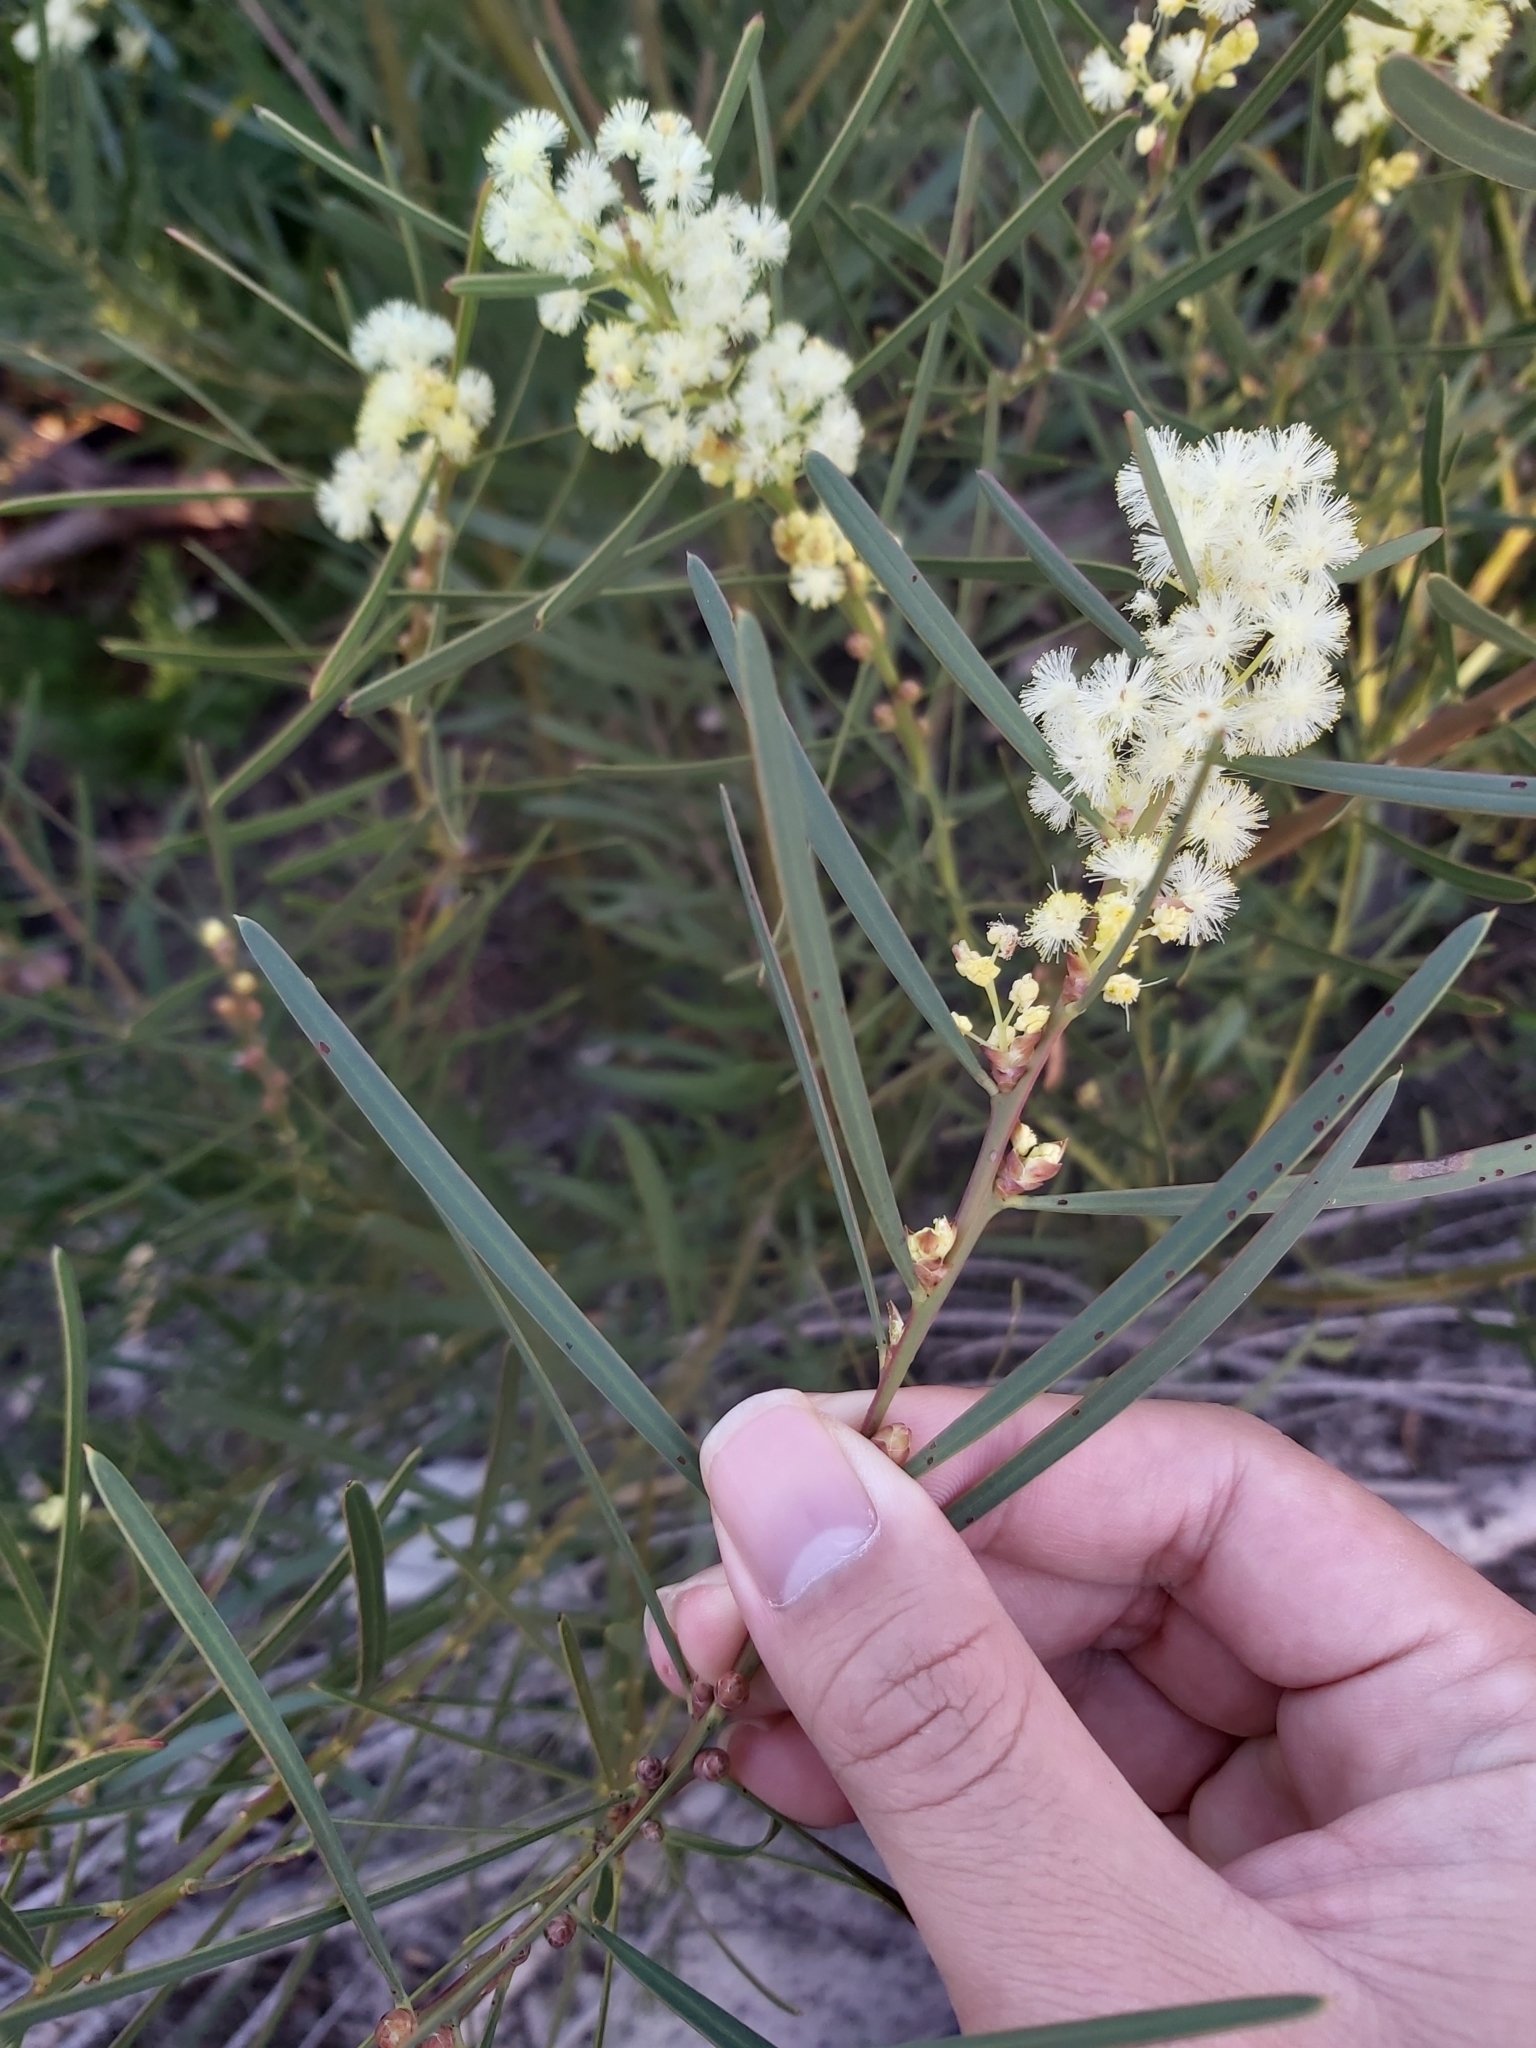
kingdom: Plantae
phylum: Tracheophyta
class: Magnoliopsida
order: Fabales
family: Fabaceae
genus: Acacia
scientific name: Acacia suaveolens
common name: Sweet acacia
